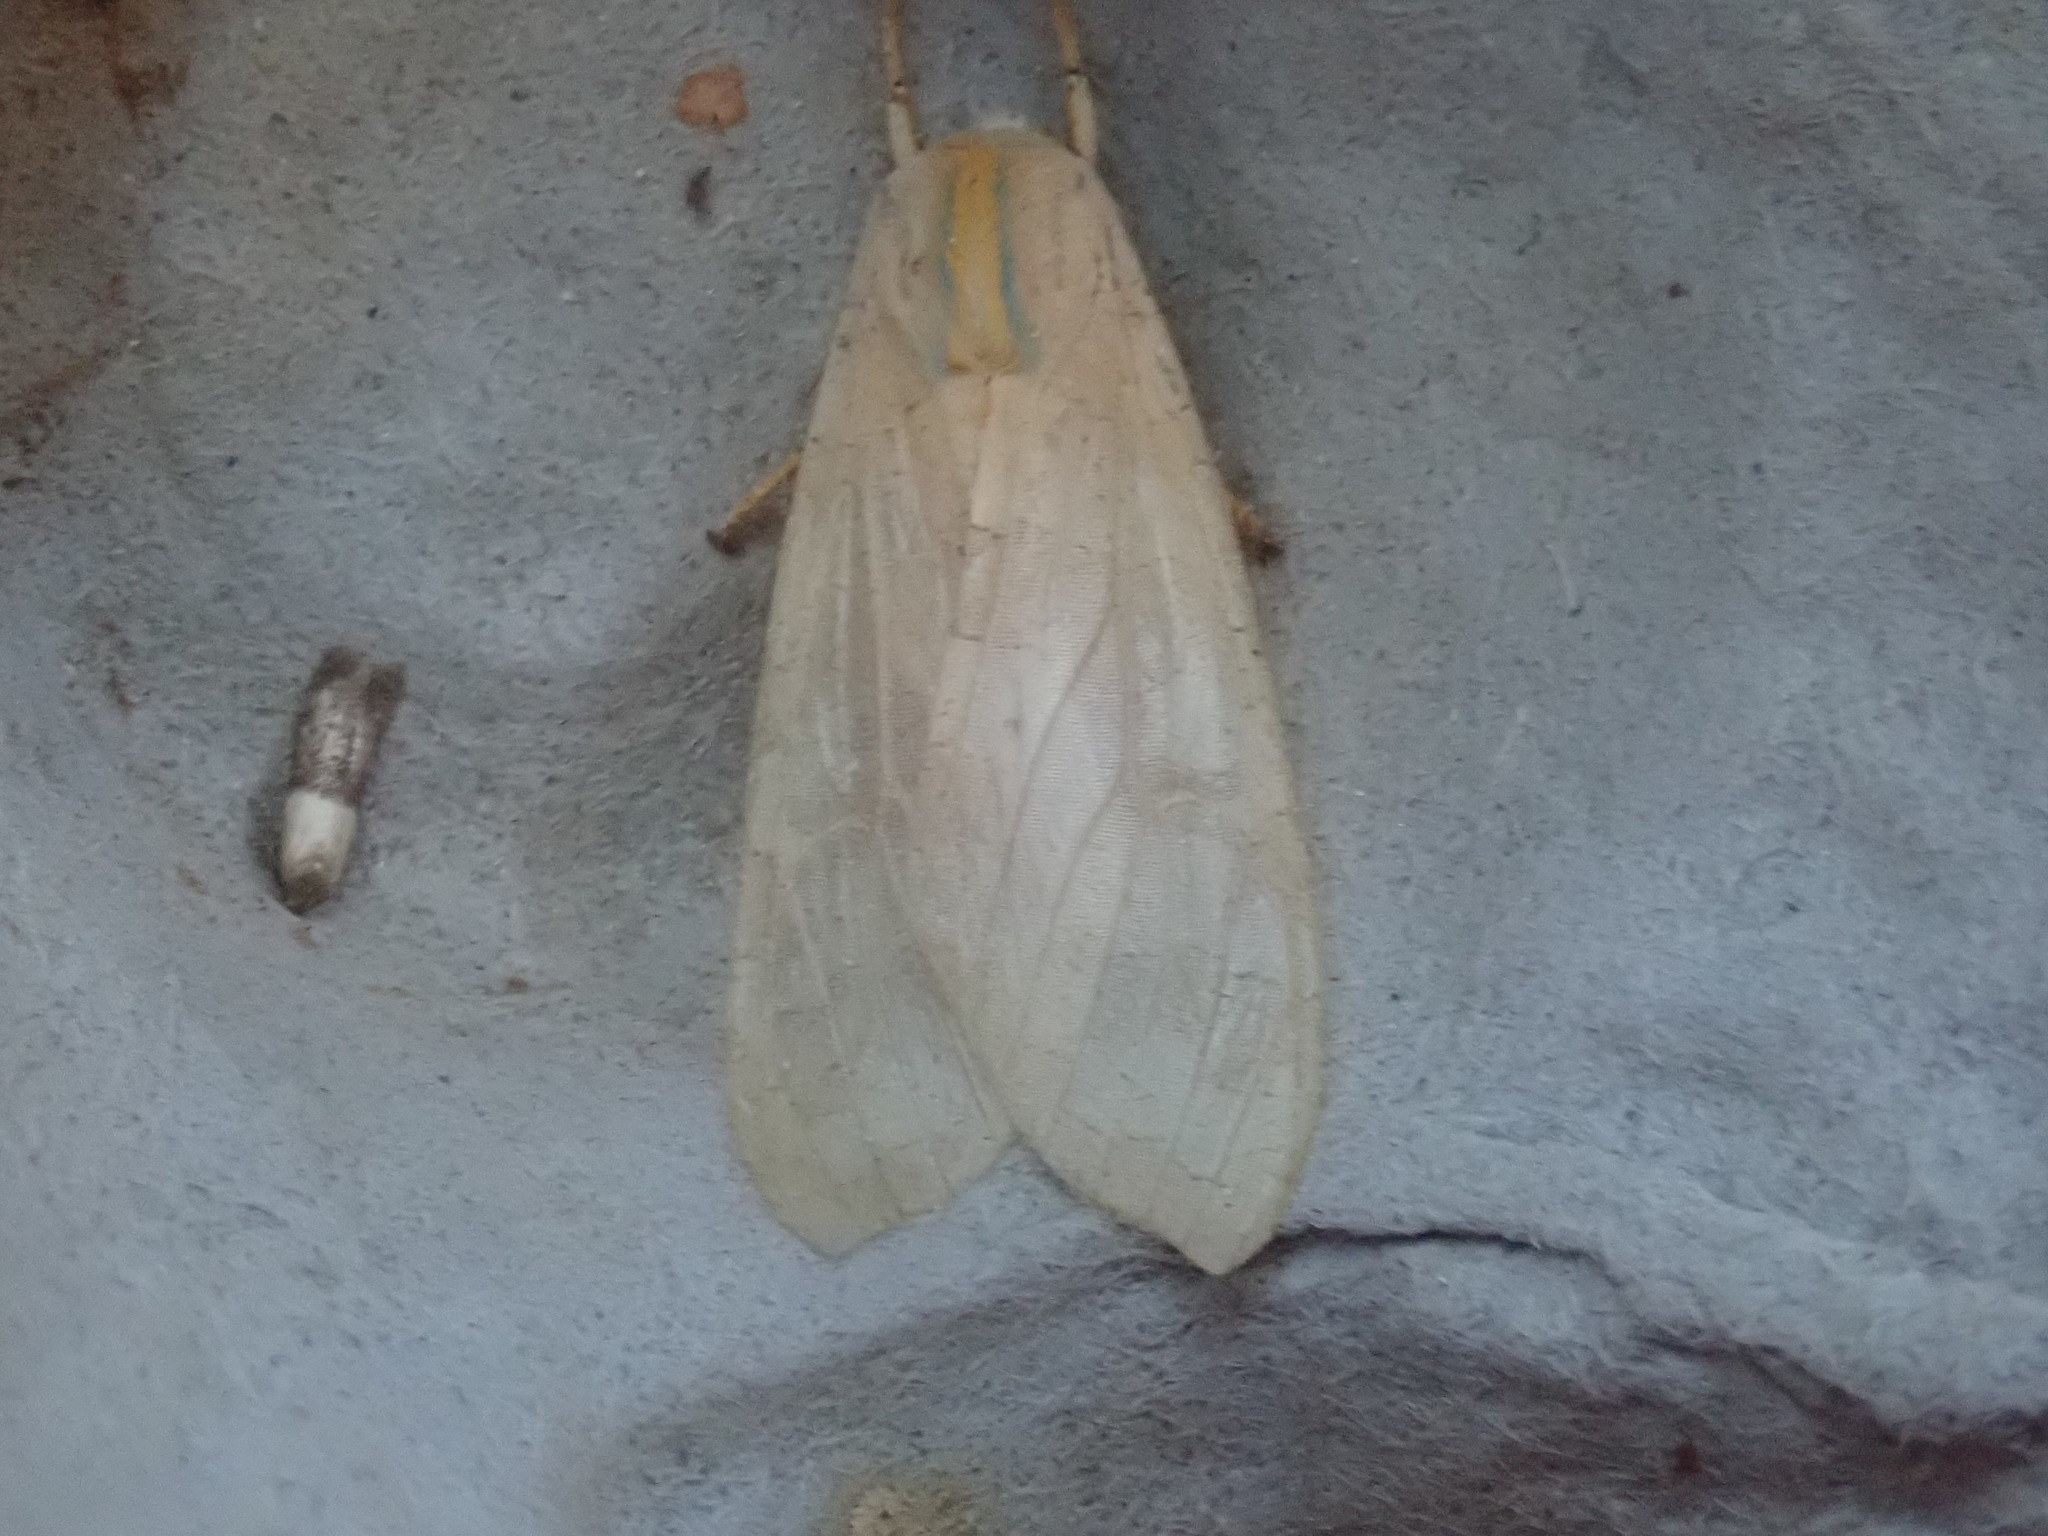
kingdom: Animalia
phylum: Arthropoda
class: Insecta
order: Lepidoptera
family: Erebidae
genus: Halysidota
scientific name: Halysidota
